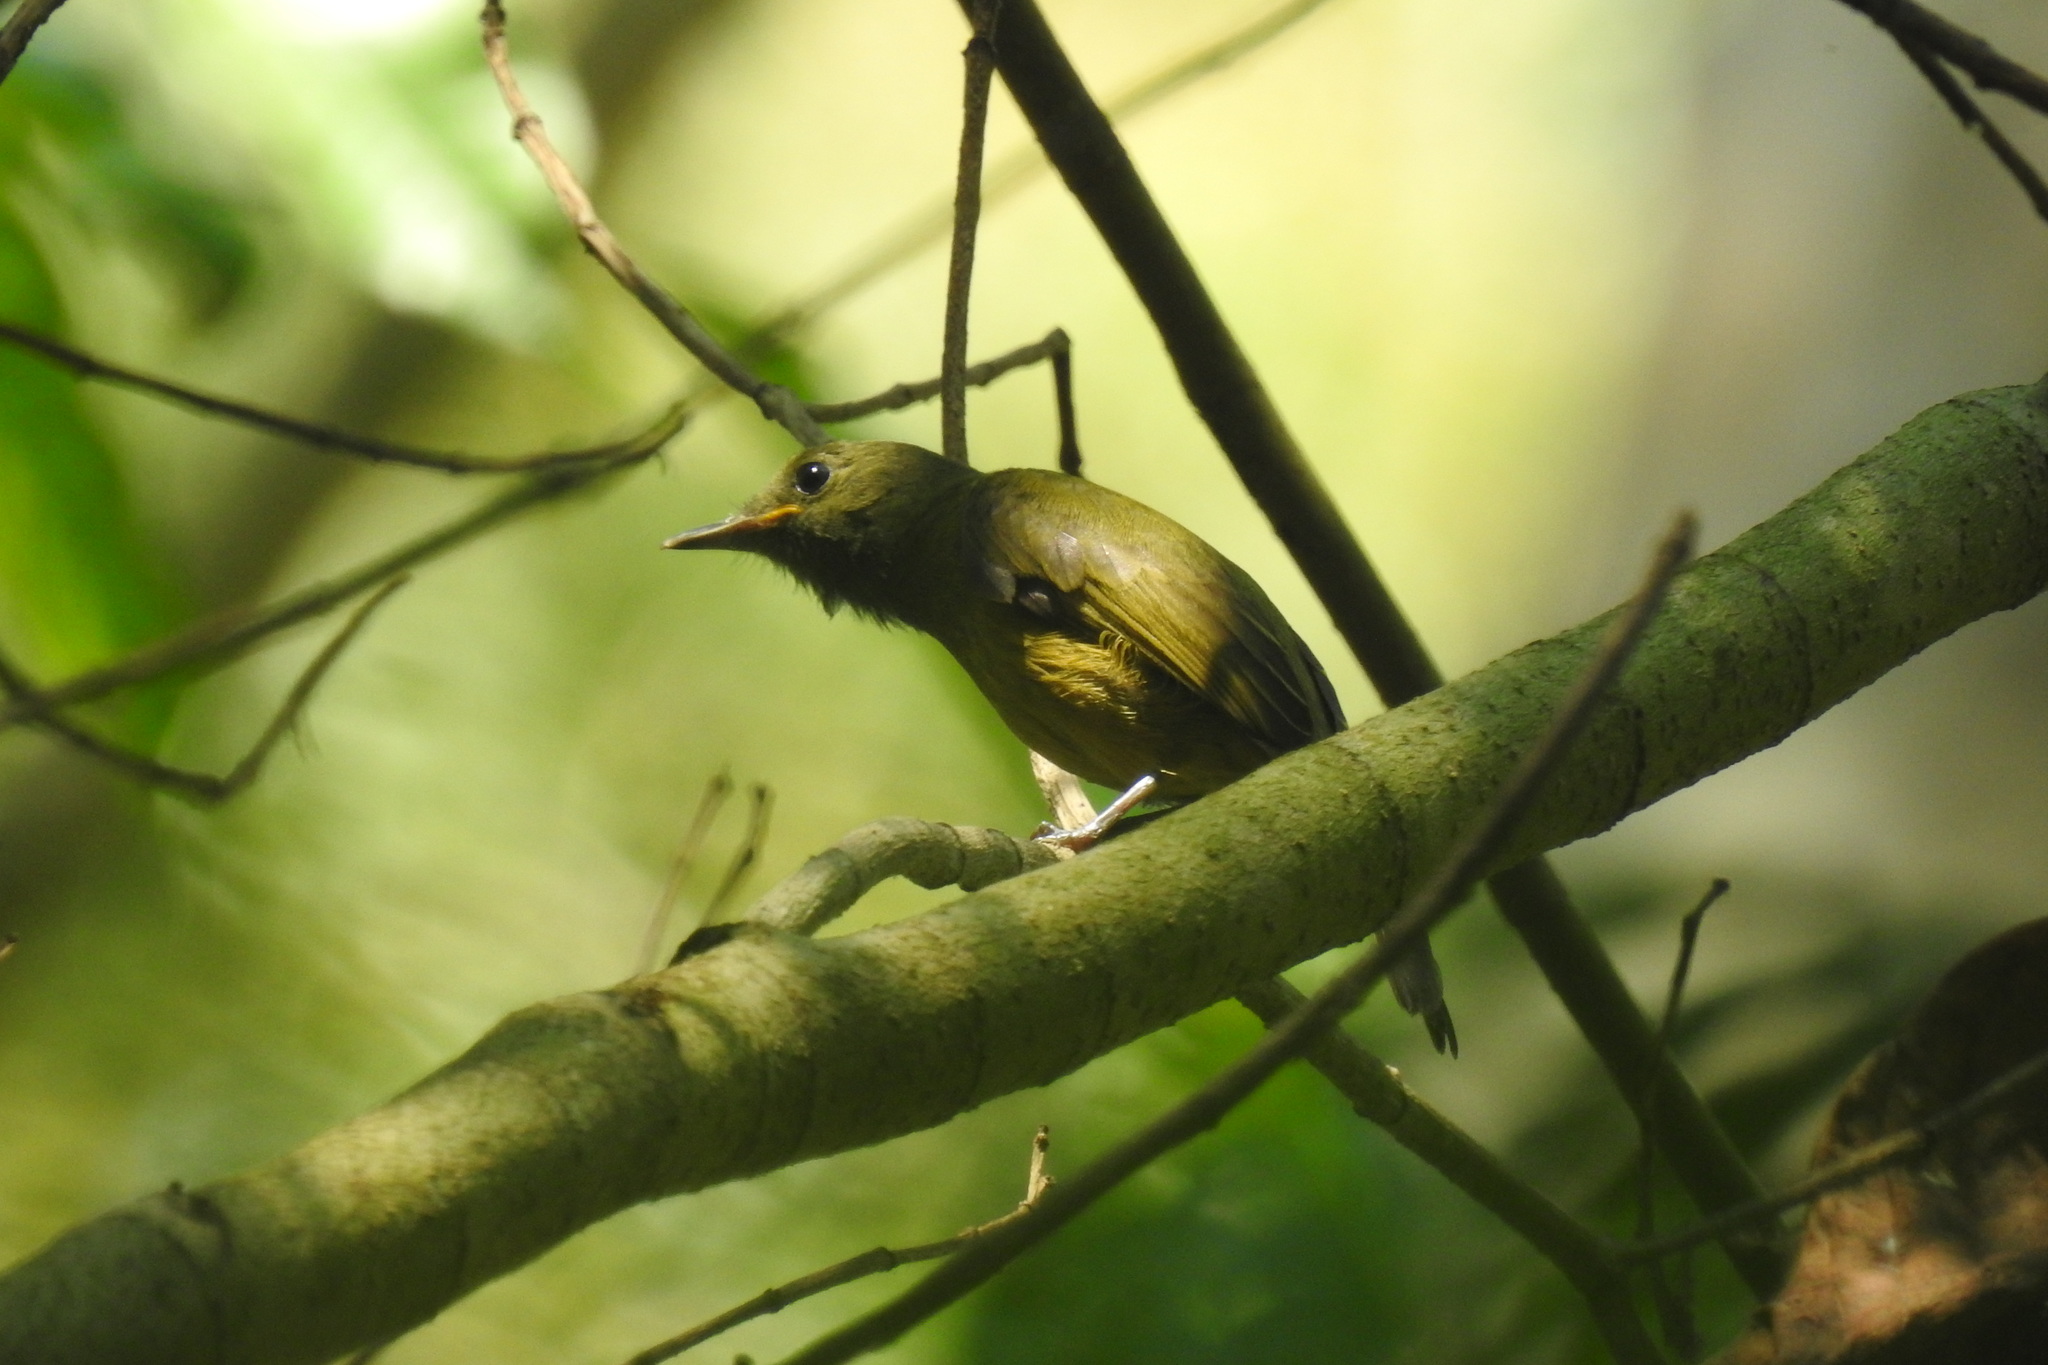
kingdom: Animalia
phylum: Chordata
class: Aves
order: Passeriformes
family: Tyrannidae
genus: Mionectes
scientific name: Mionectes oleagineus
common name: Ochre-bellied flycatcher
